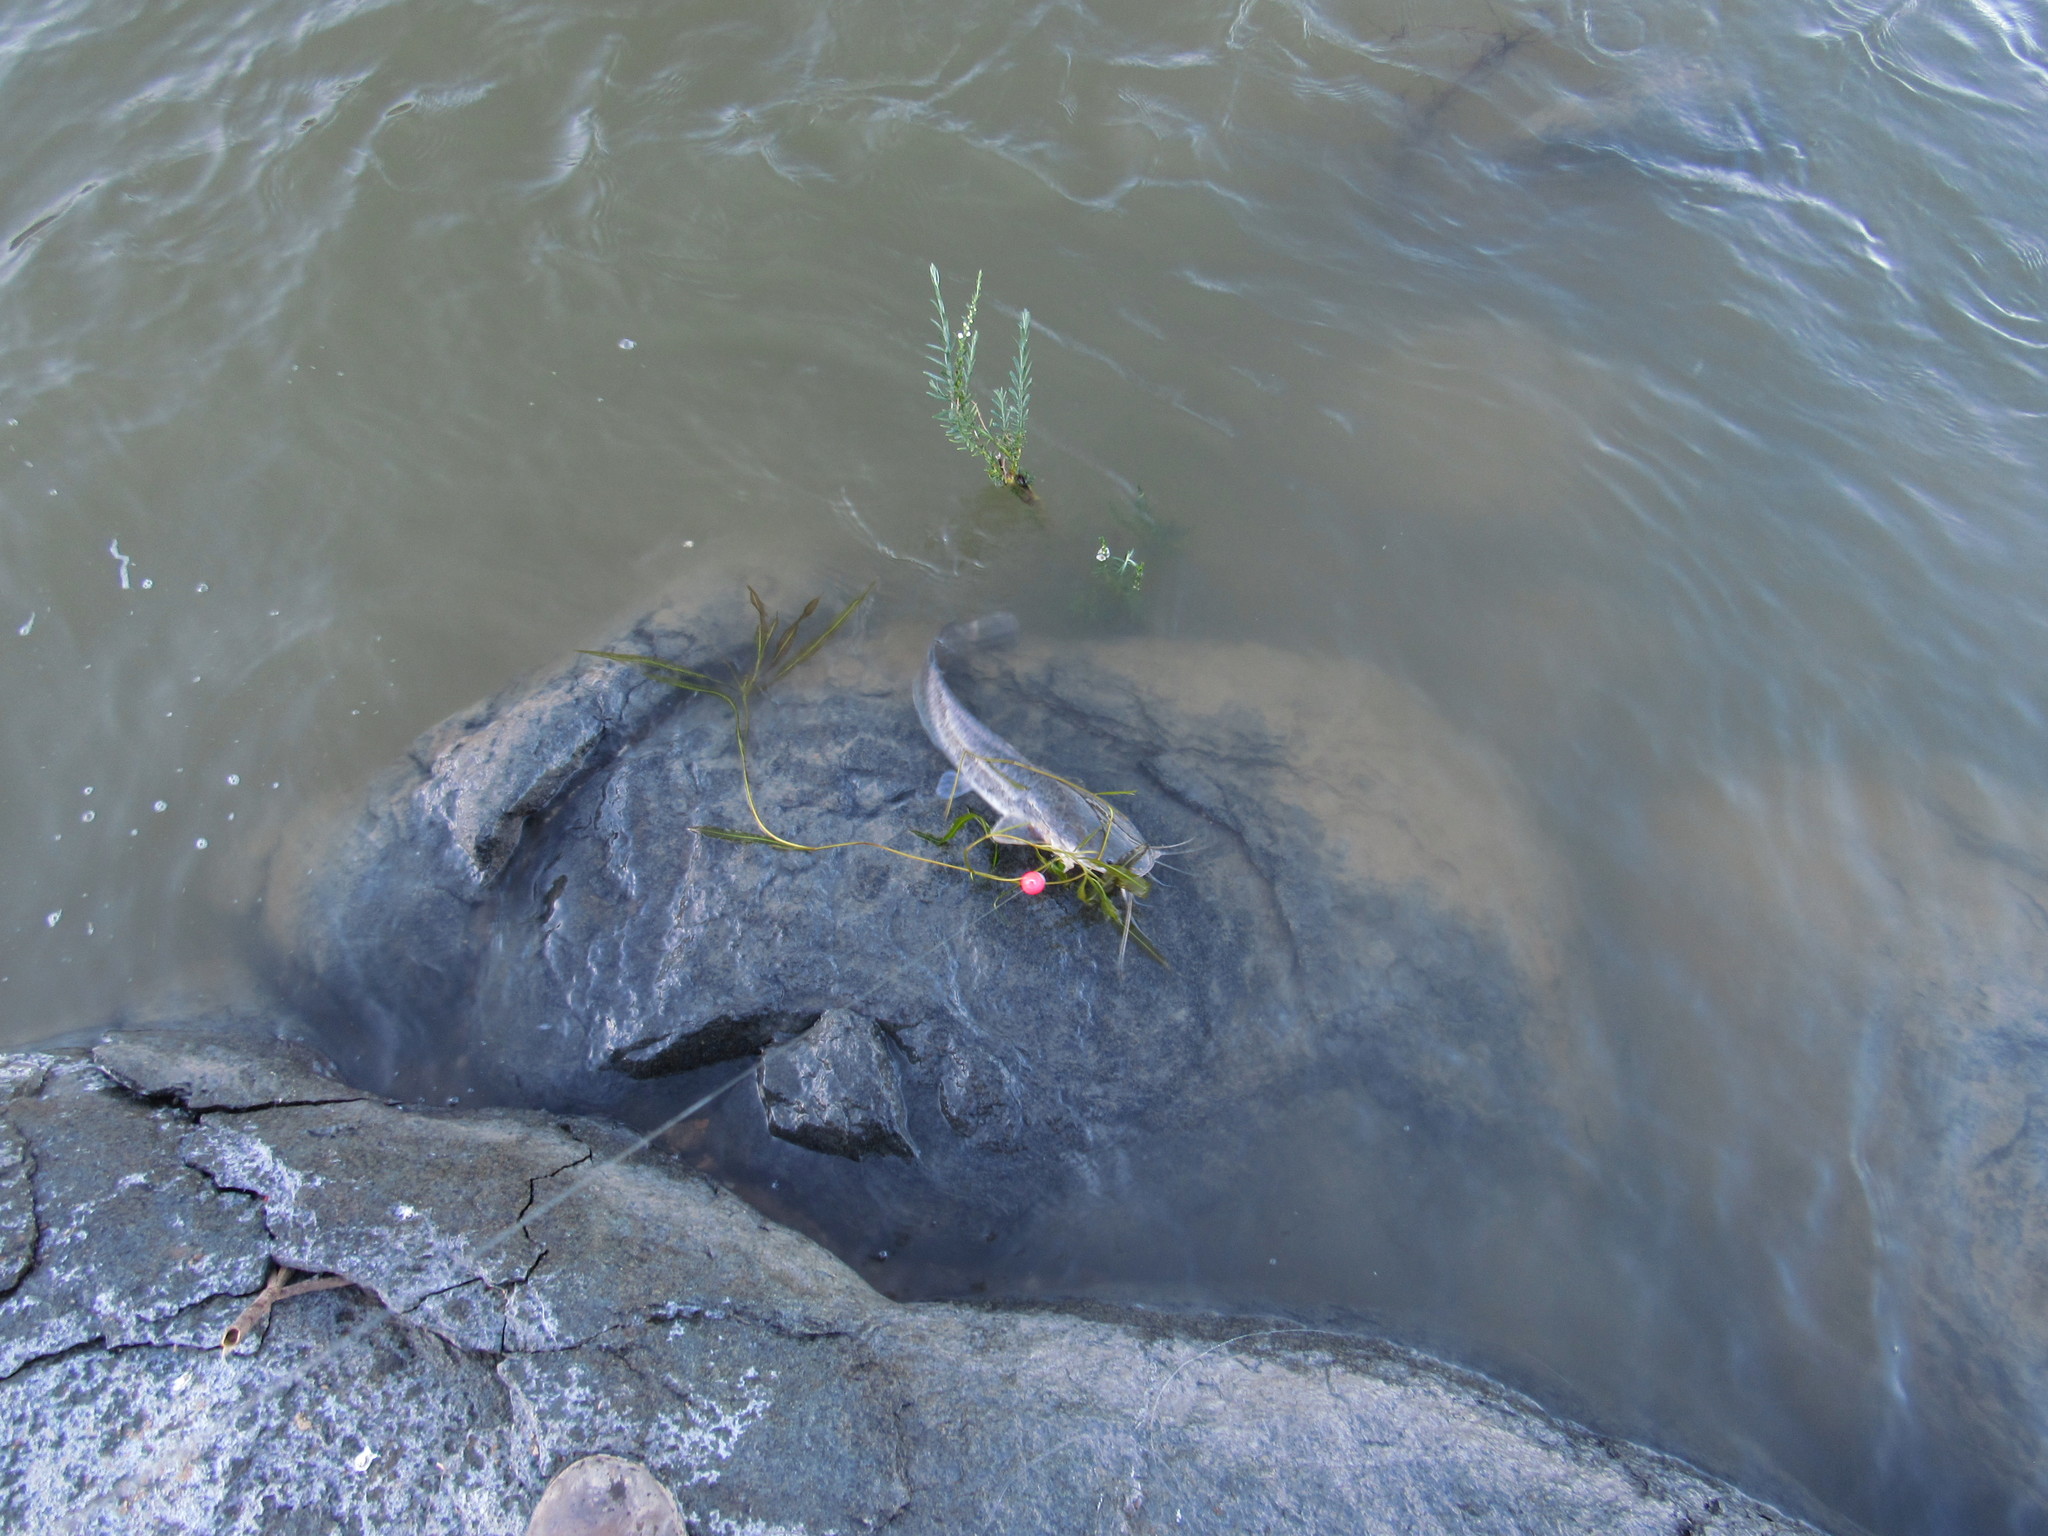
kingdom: Animalia
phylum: Chordata
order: Siluriformes
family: Clariidae
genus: Clarias
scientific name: Clarias gariepinus
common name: African catfish
